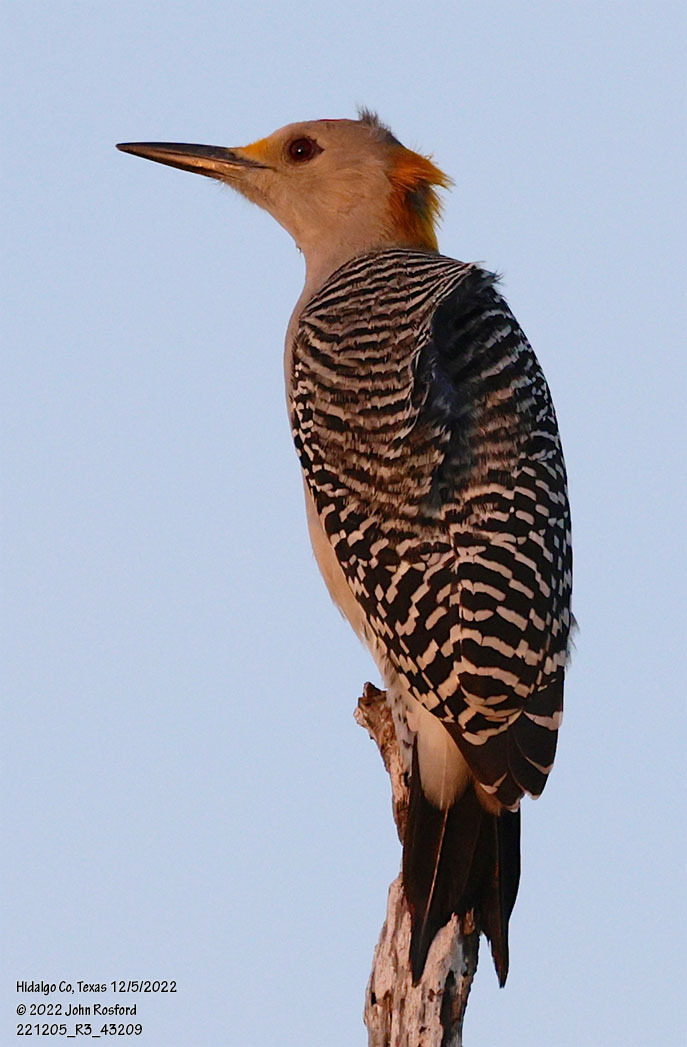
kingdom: Animalia
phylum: Chordata
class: Aves
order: Piciformes
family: Picidae
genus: Melanerpes
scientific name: Melanerpes aurifrons
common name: Golden-fronted woodpecker
